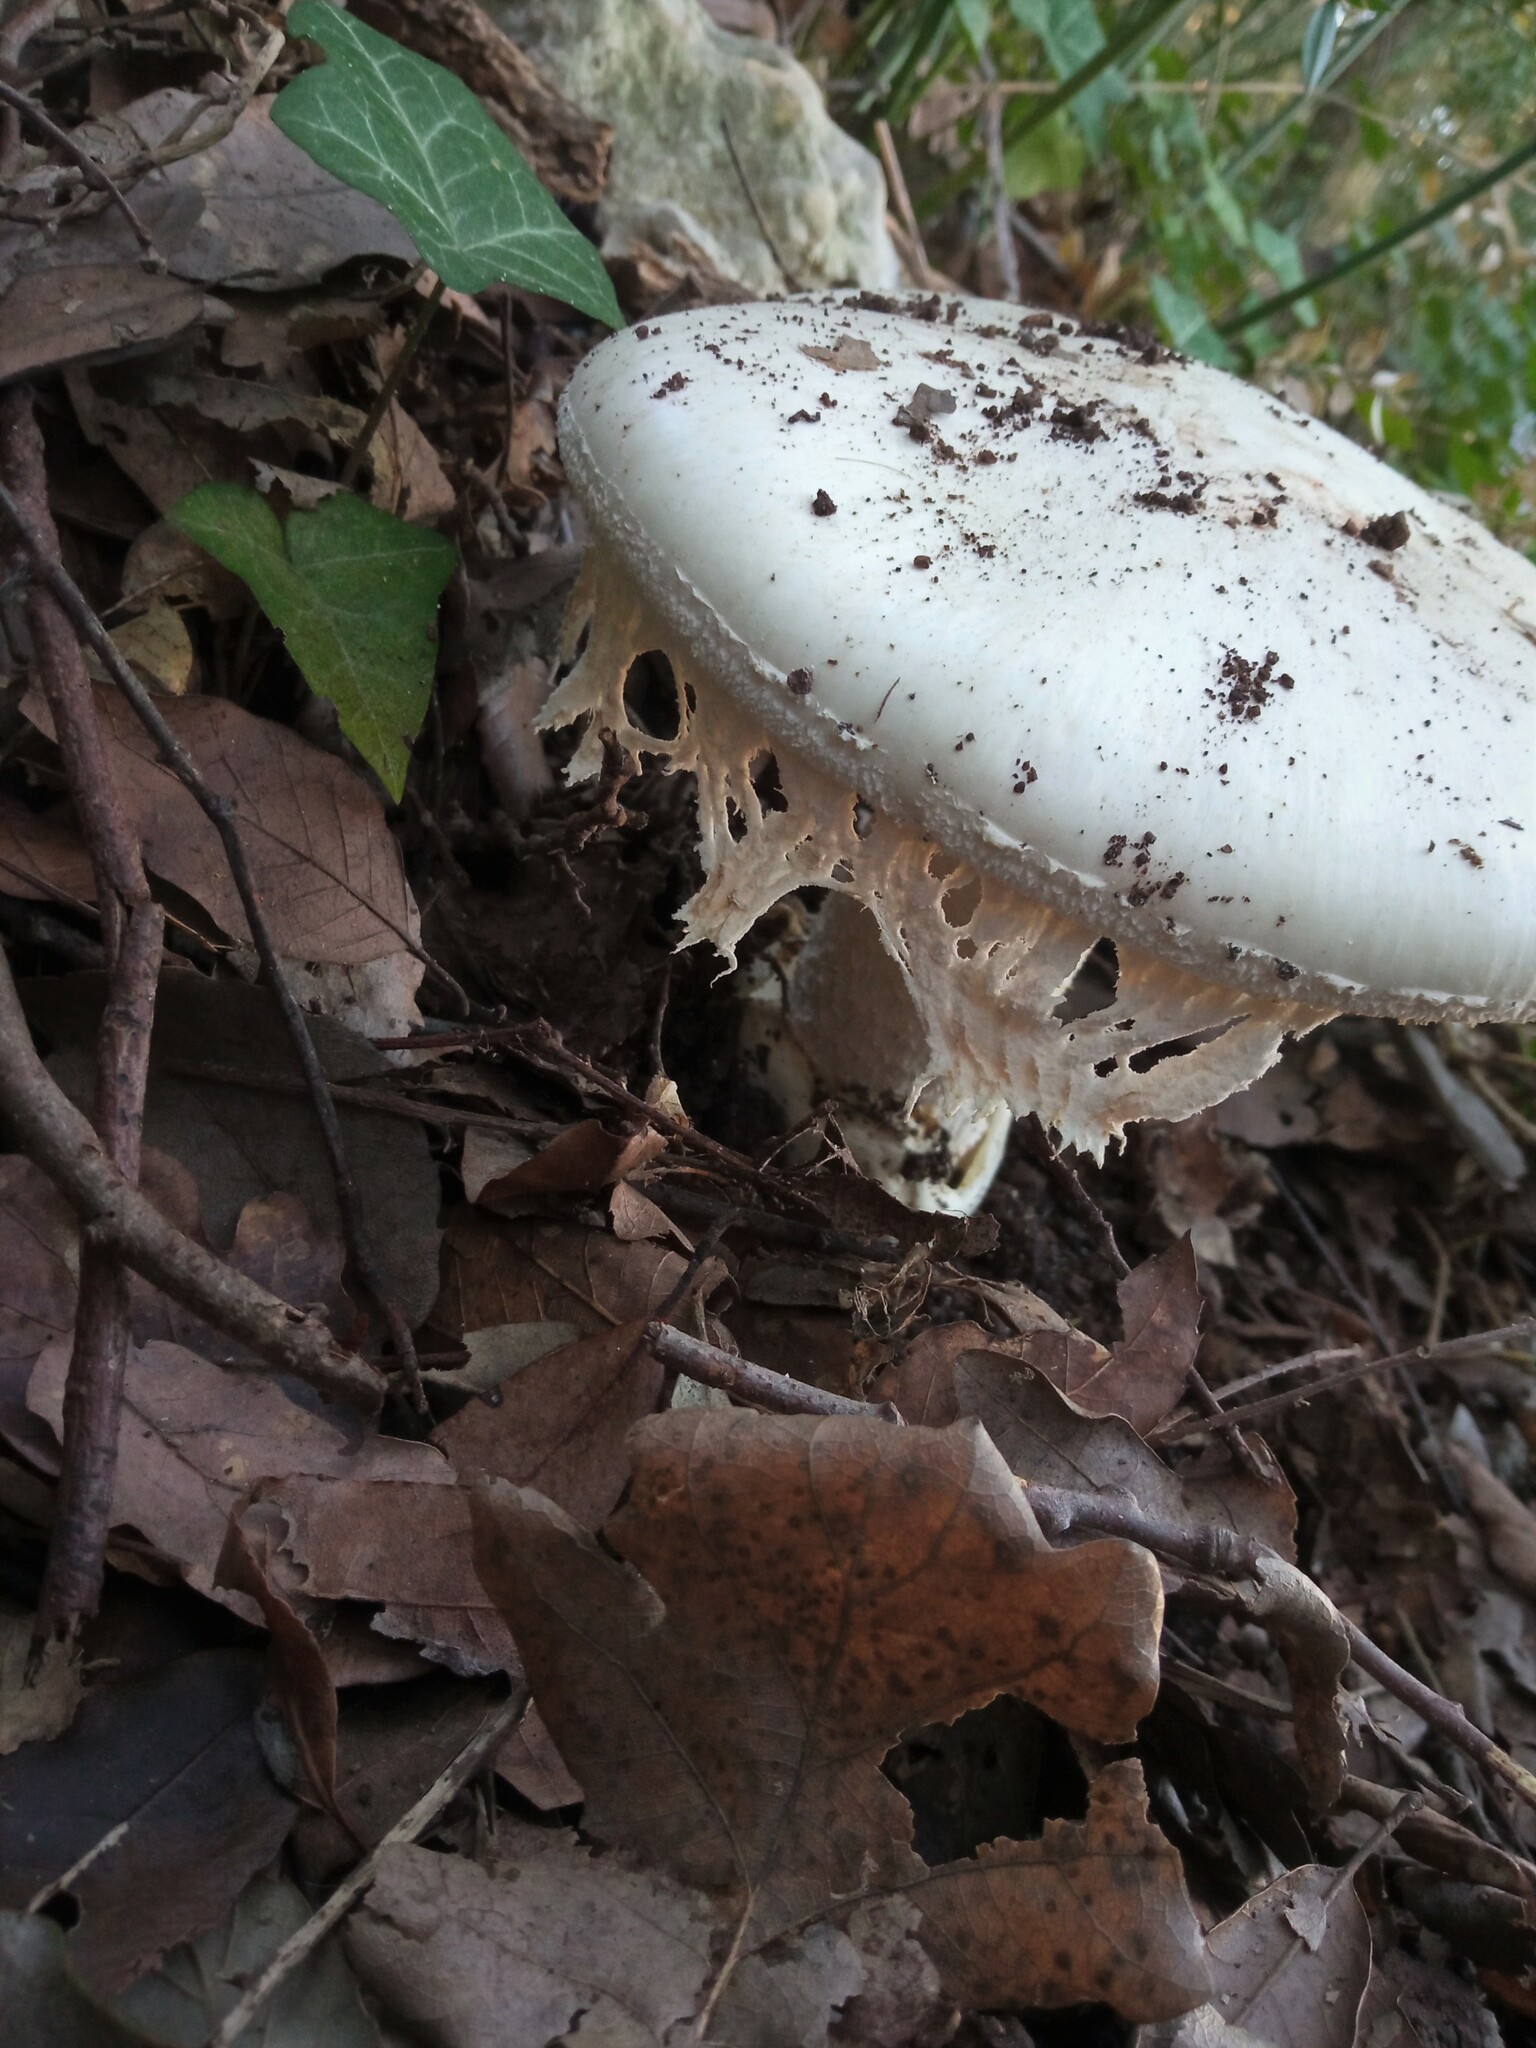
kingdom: Fungi
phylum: Basidiomycota
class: Agaricomycetes
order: Agaricales
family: Amanitaceae
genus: Amanita
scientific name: Amanita ovoidea
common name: Bearded amanita
